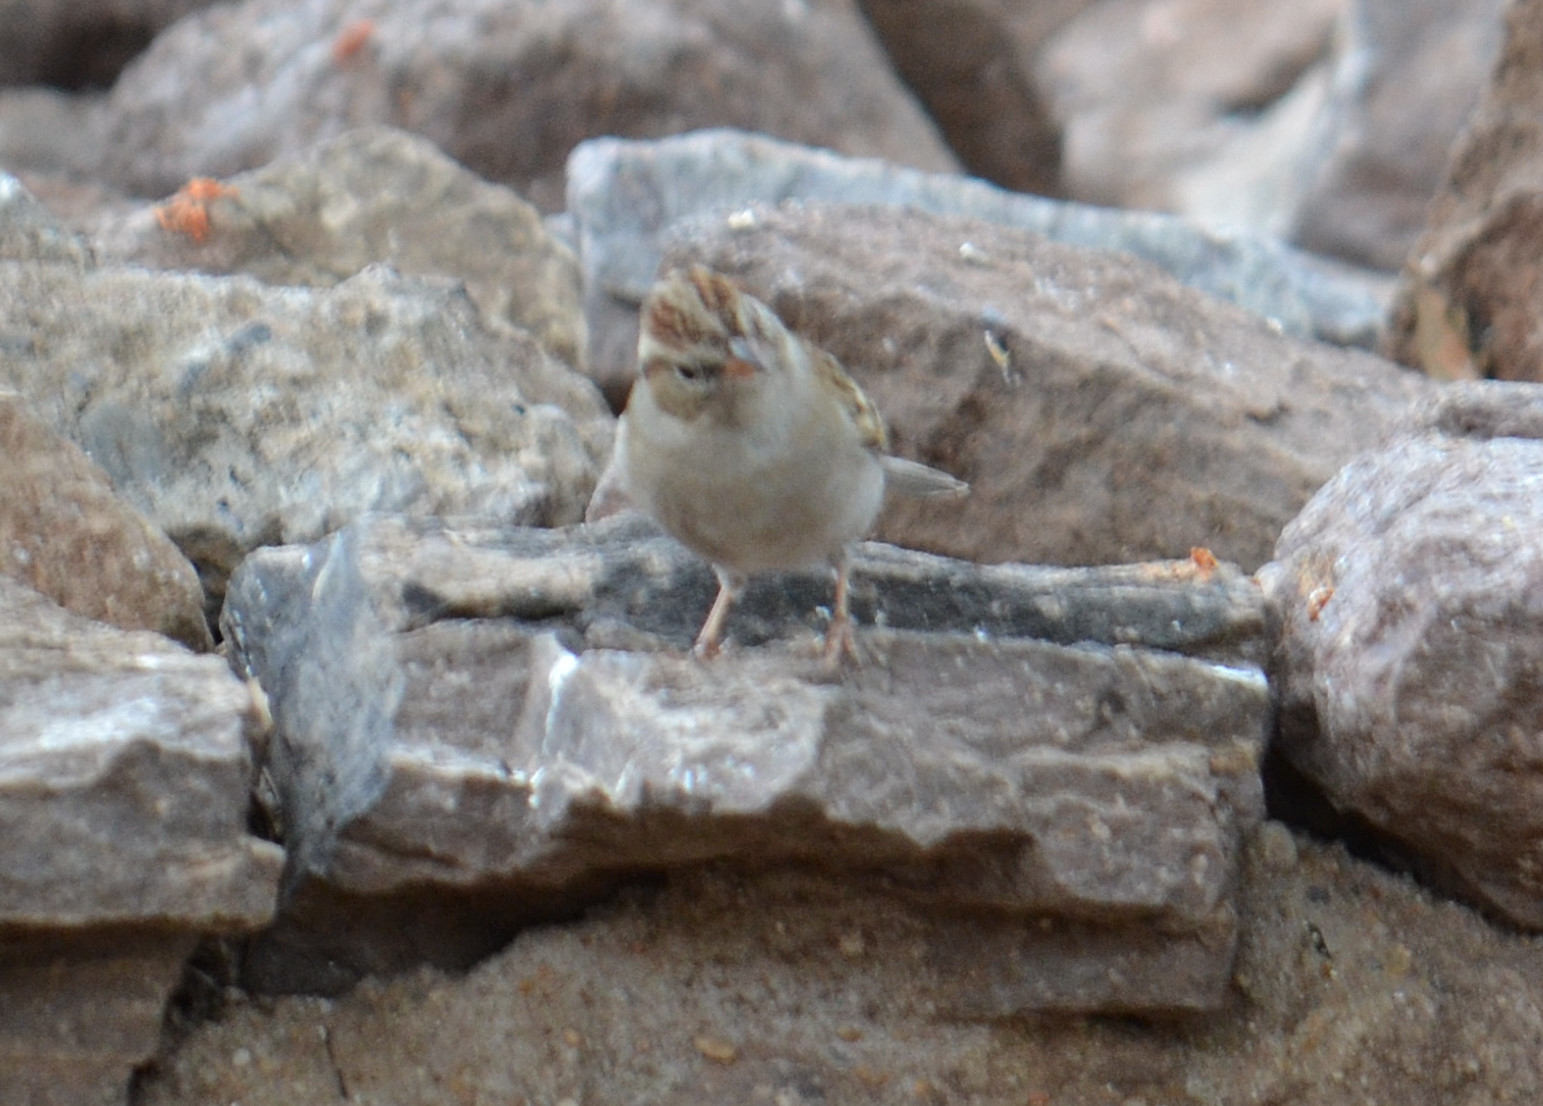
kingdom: Animalia
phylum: Chordata
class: Aves
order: Passeriformes
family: Passerellidae
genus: Spizella
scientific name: Spizella passerina
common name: Chipping sparrow
